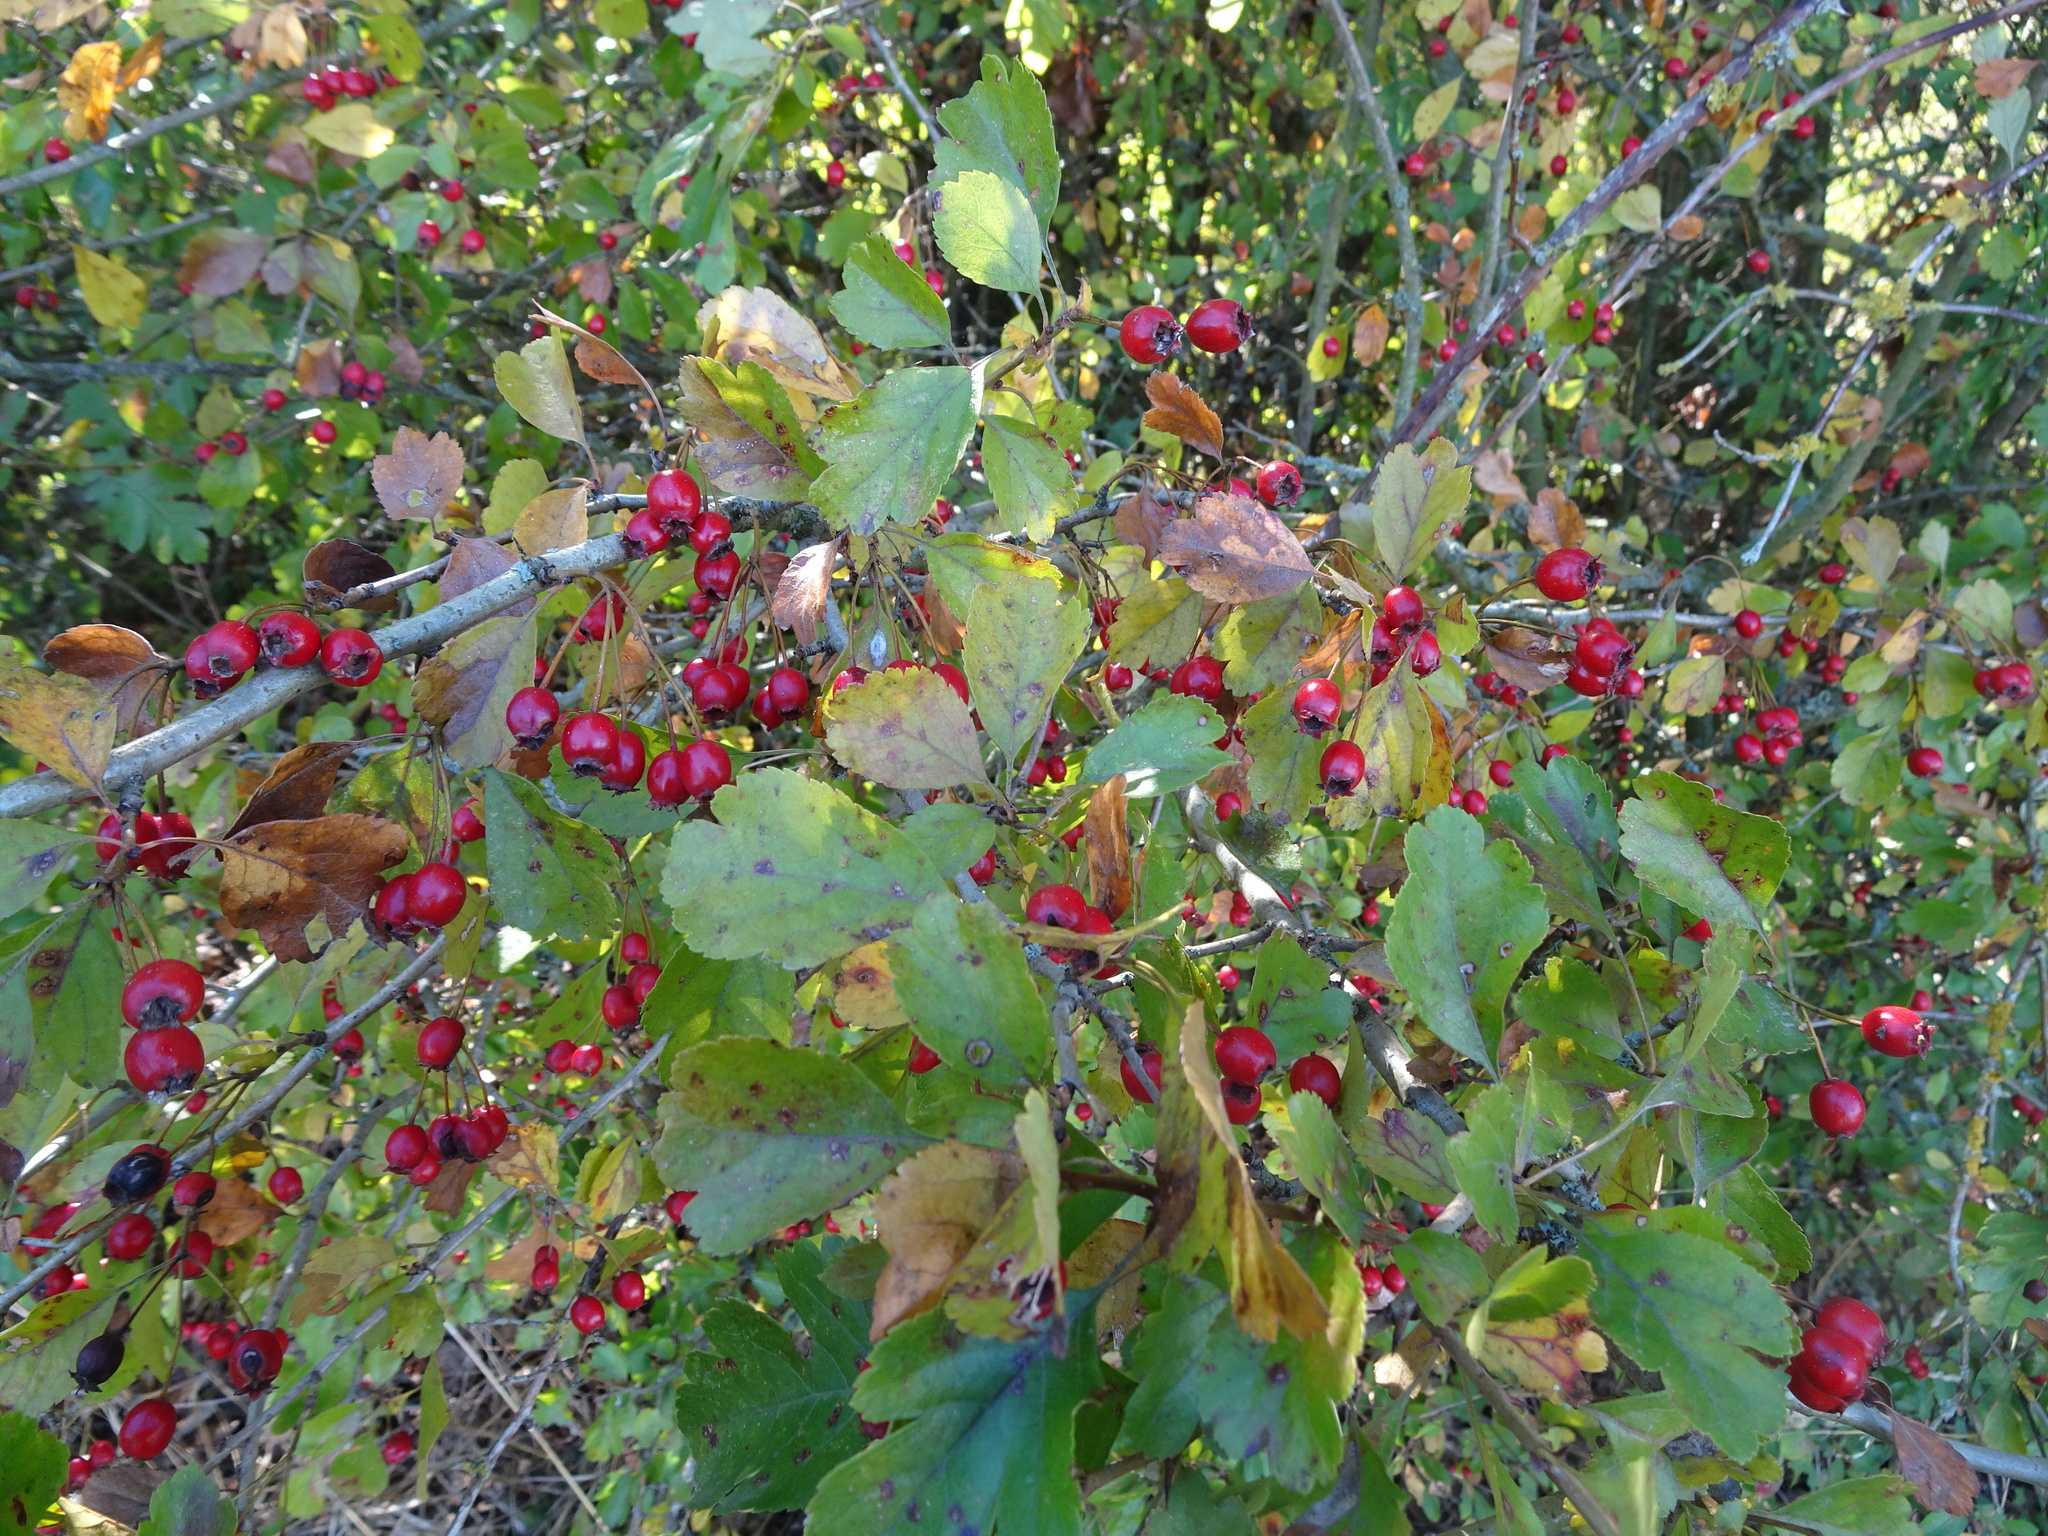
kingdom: Plantae
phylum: Tracheophyta
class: Magnoliopsida
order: Rosales
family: Rosaceae
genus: Crataegus
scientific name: Crataegus laevigata
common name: Midland hawthorn
